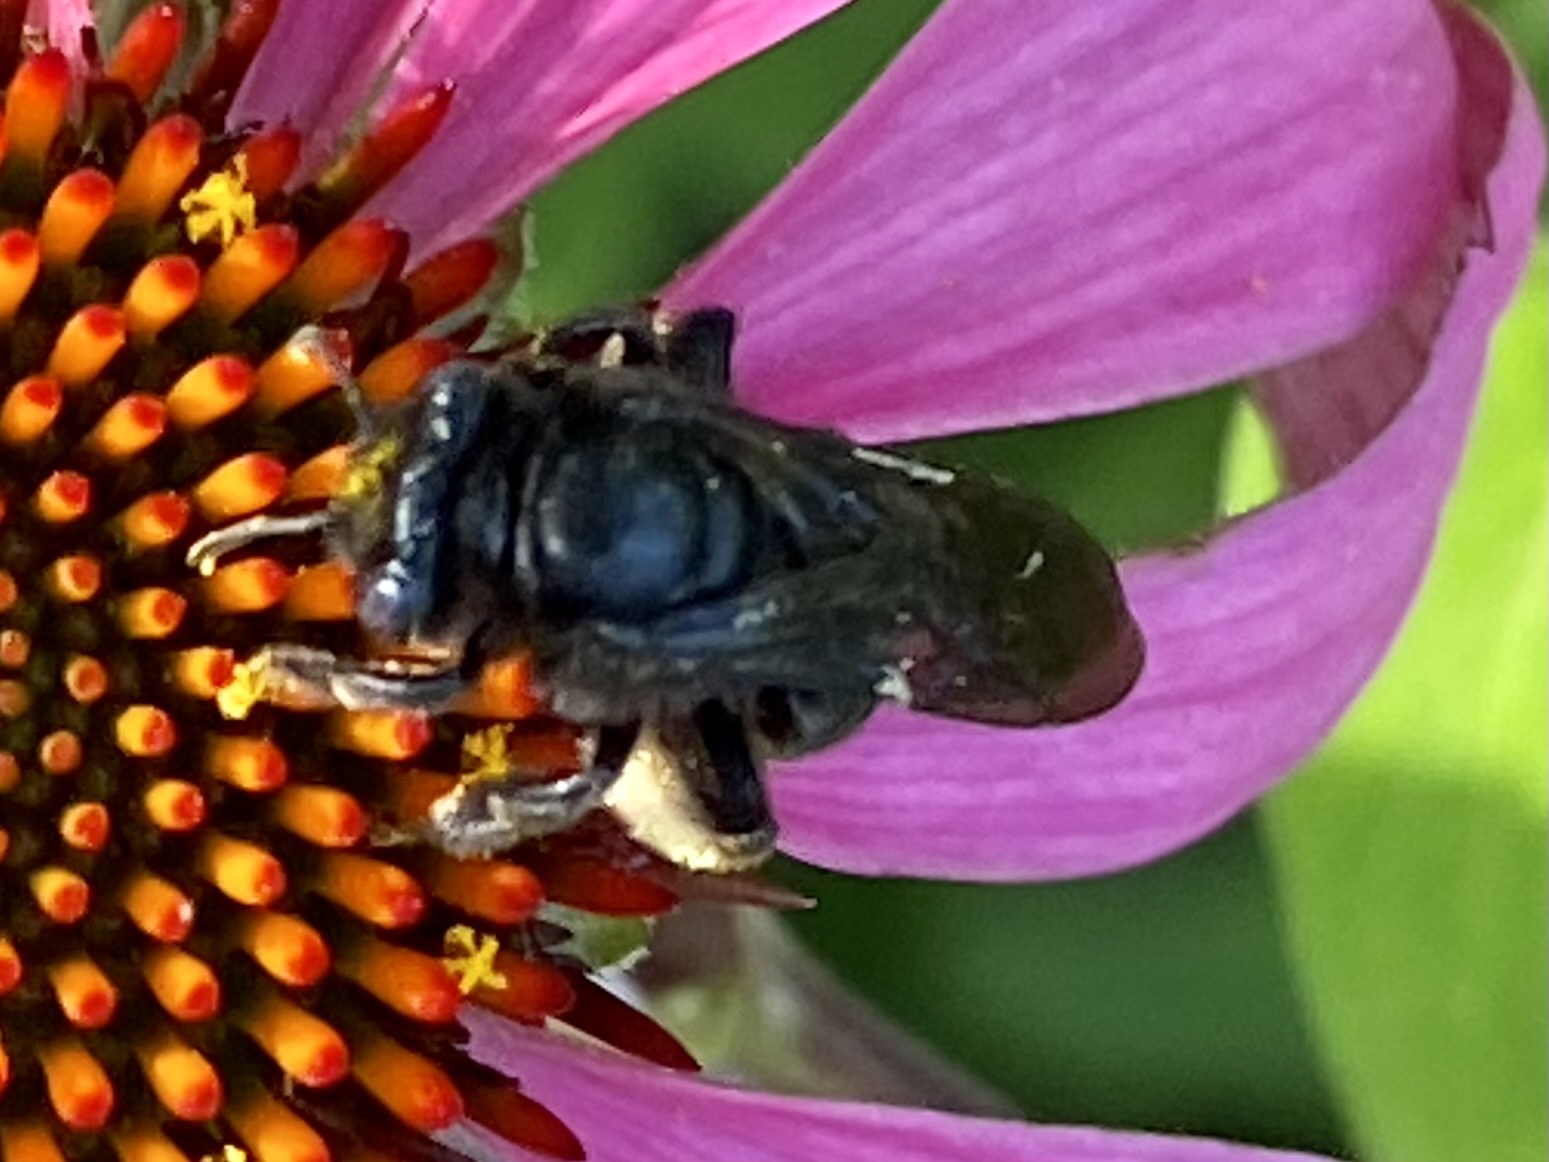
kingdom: Animalia
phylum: Arthropoda
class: Insecta
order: Hymenoptera
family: Apidae
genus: Melissodes
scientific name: Melissodes bimaculatus
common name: Two-spotted long-horned bee
